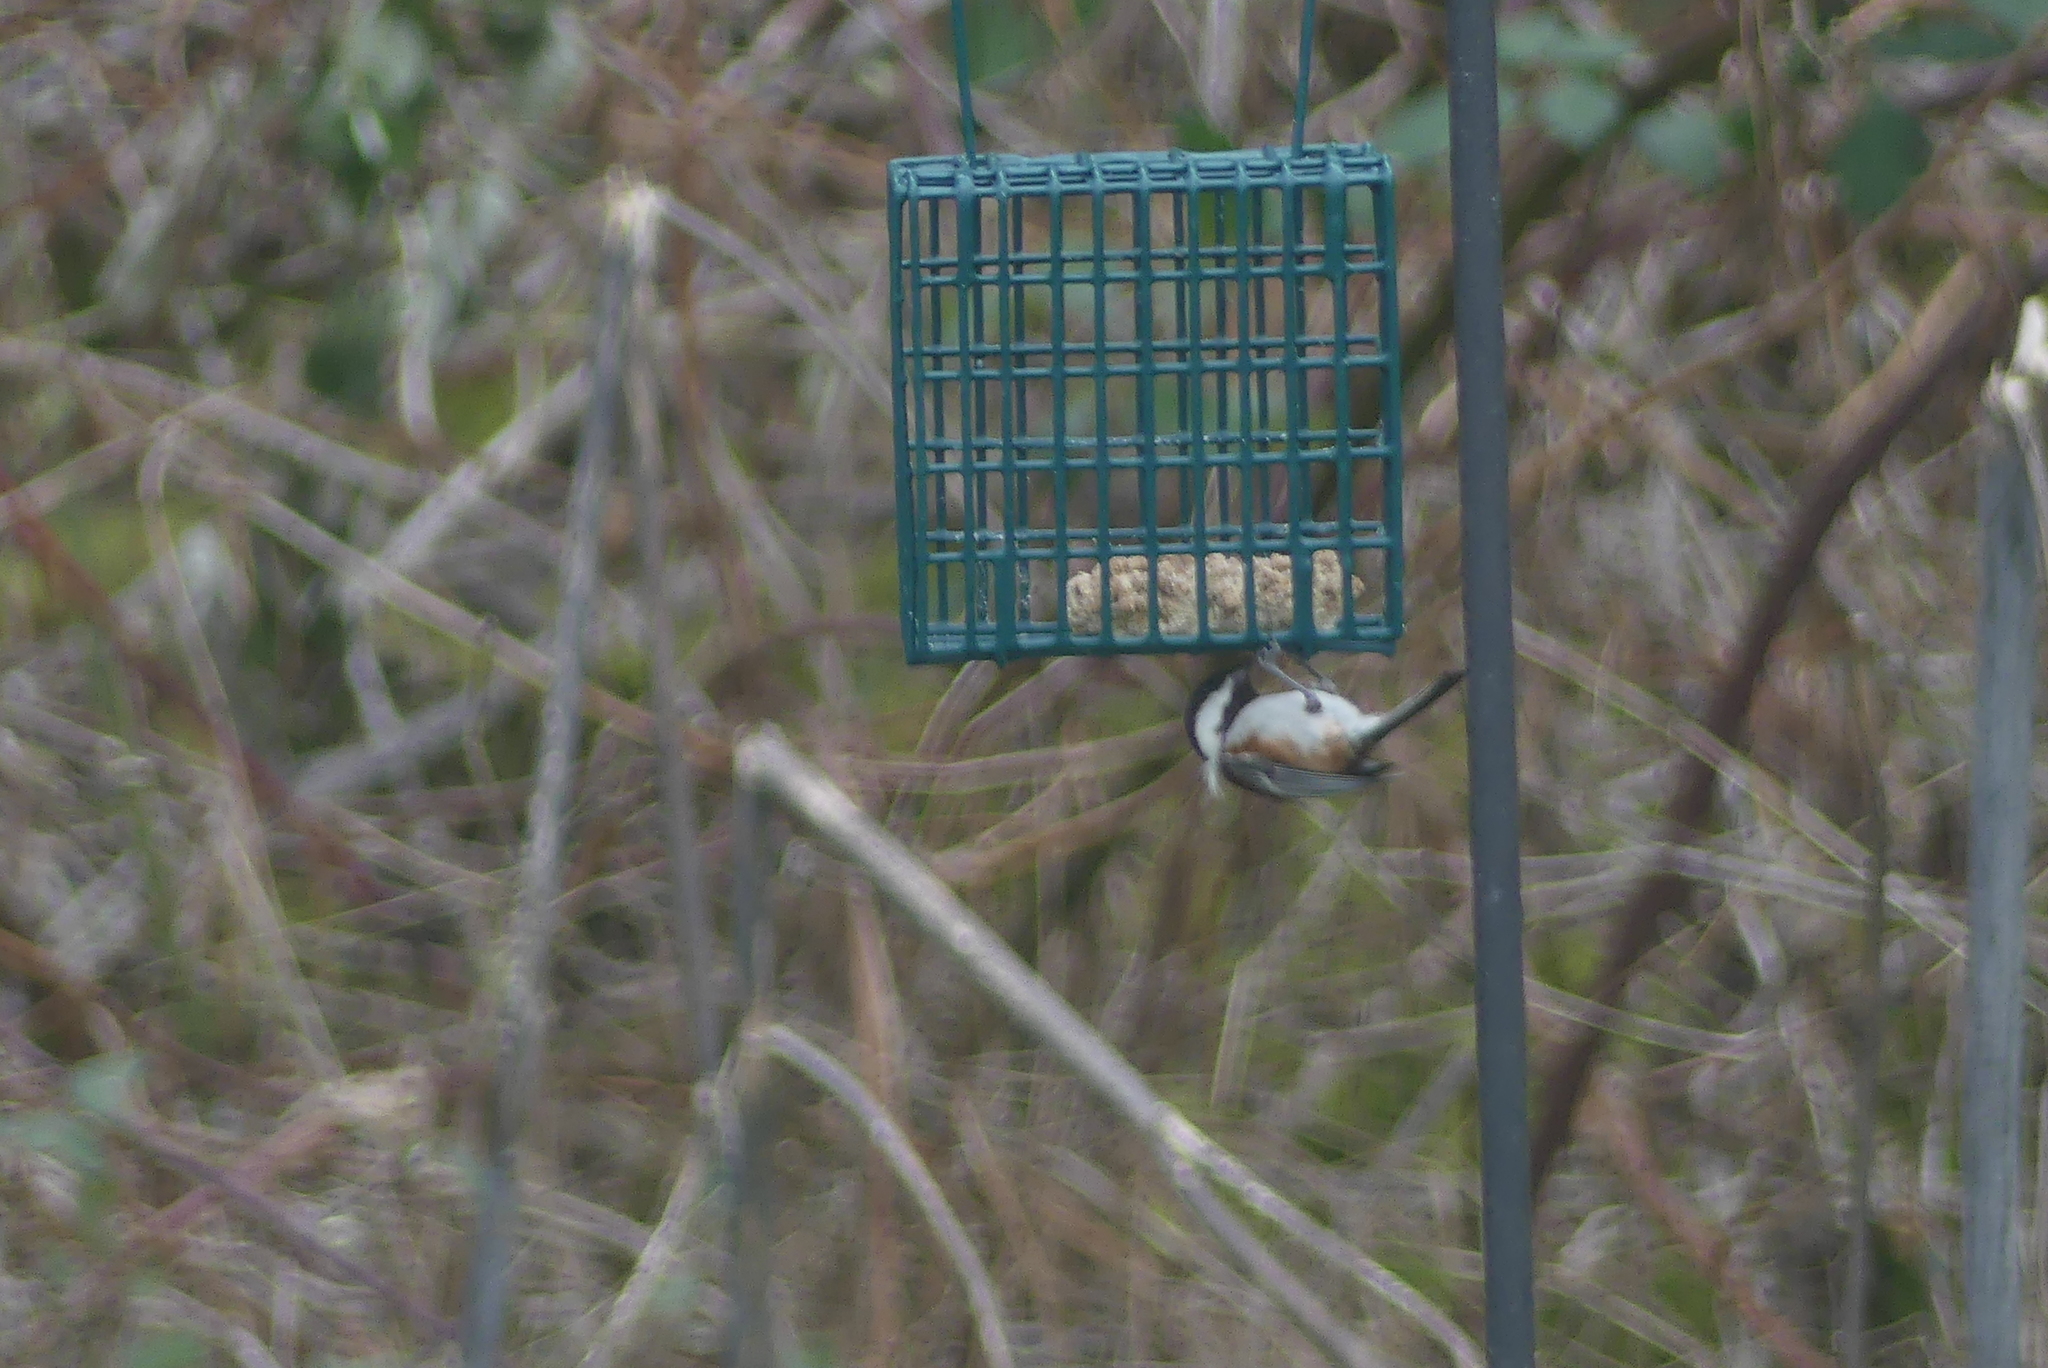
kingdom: Animalia
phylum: Chordata
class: Aves
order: Passeriformes
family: Paridae
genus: Poecile
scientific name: Poecile rufescens
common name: Chestnut-backed chickadee
